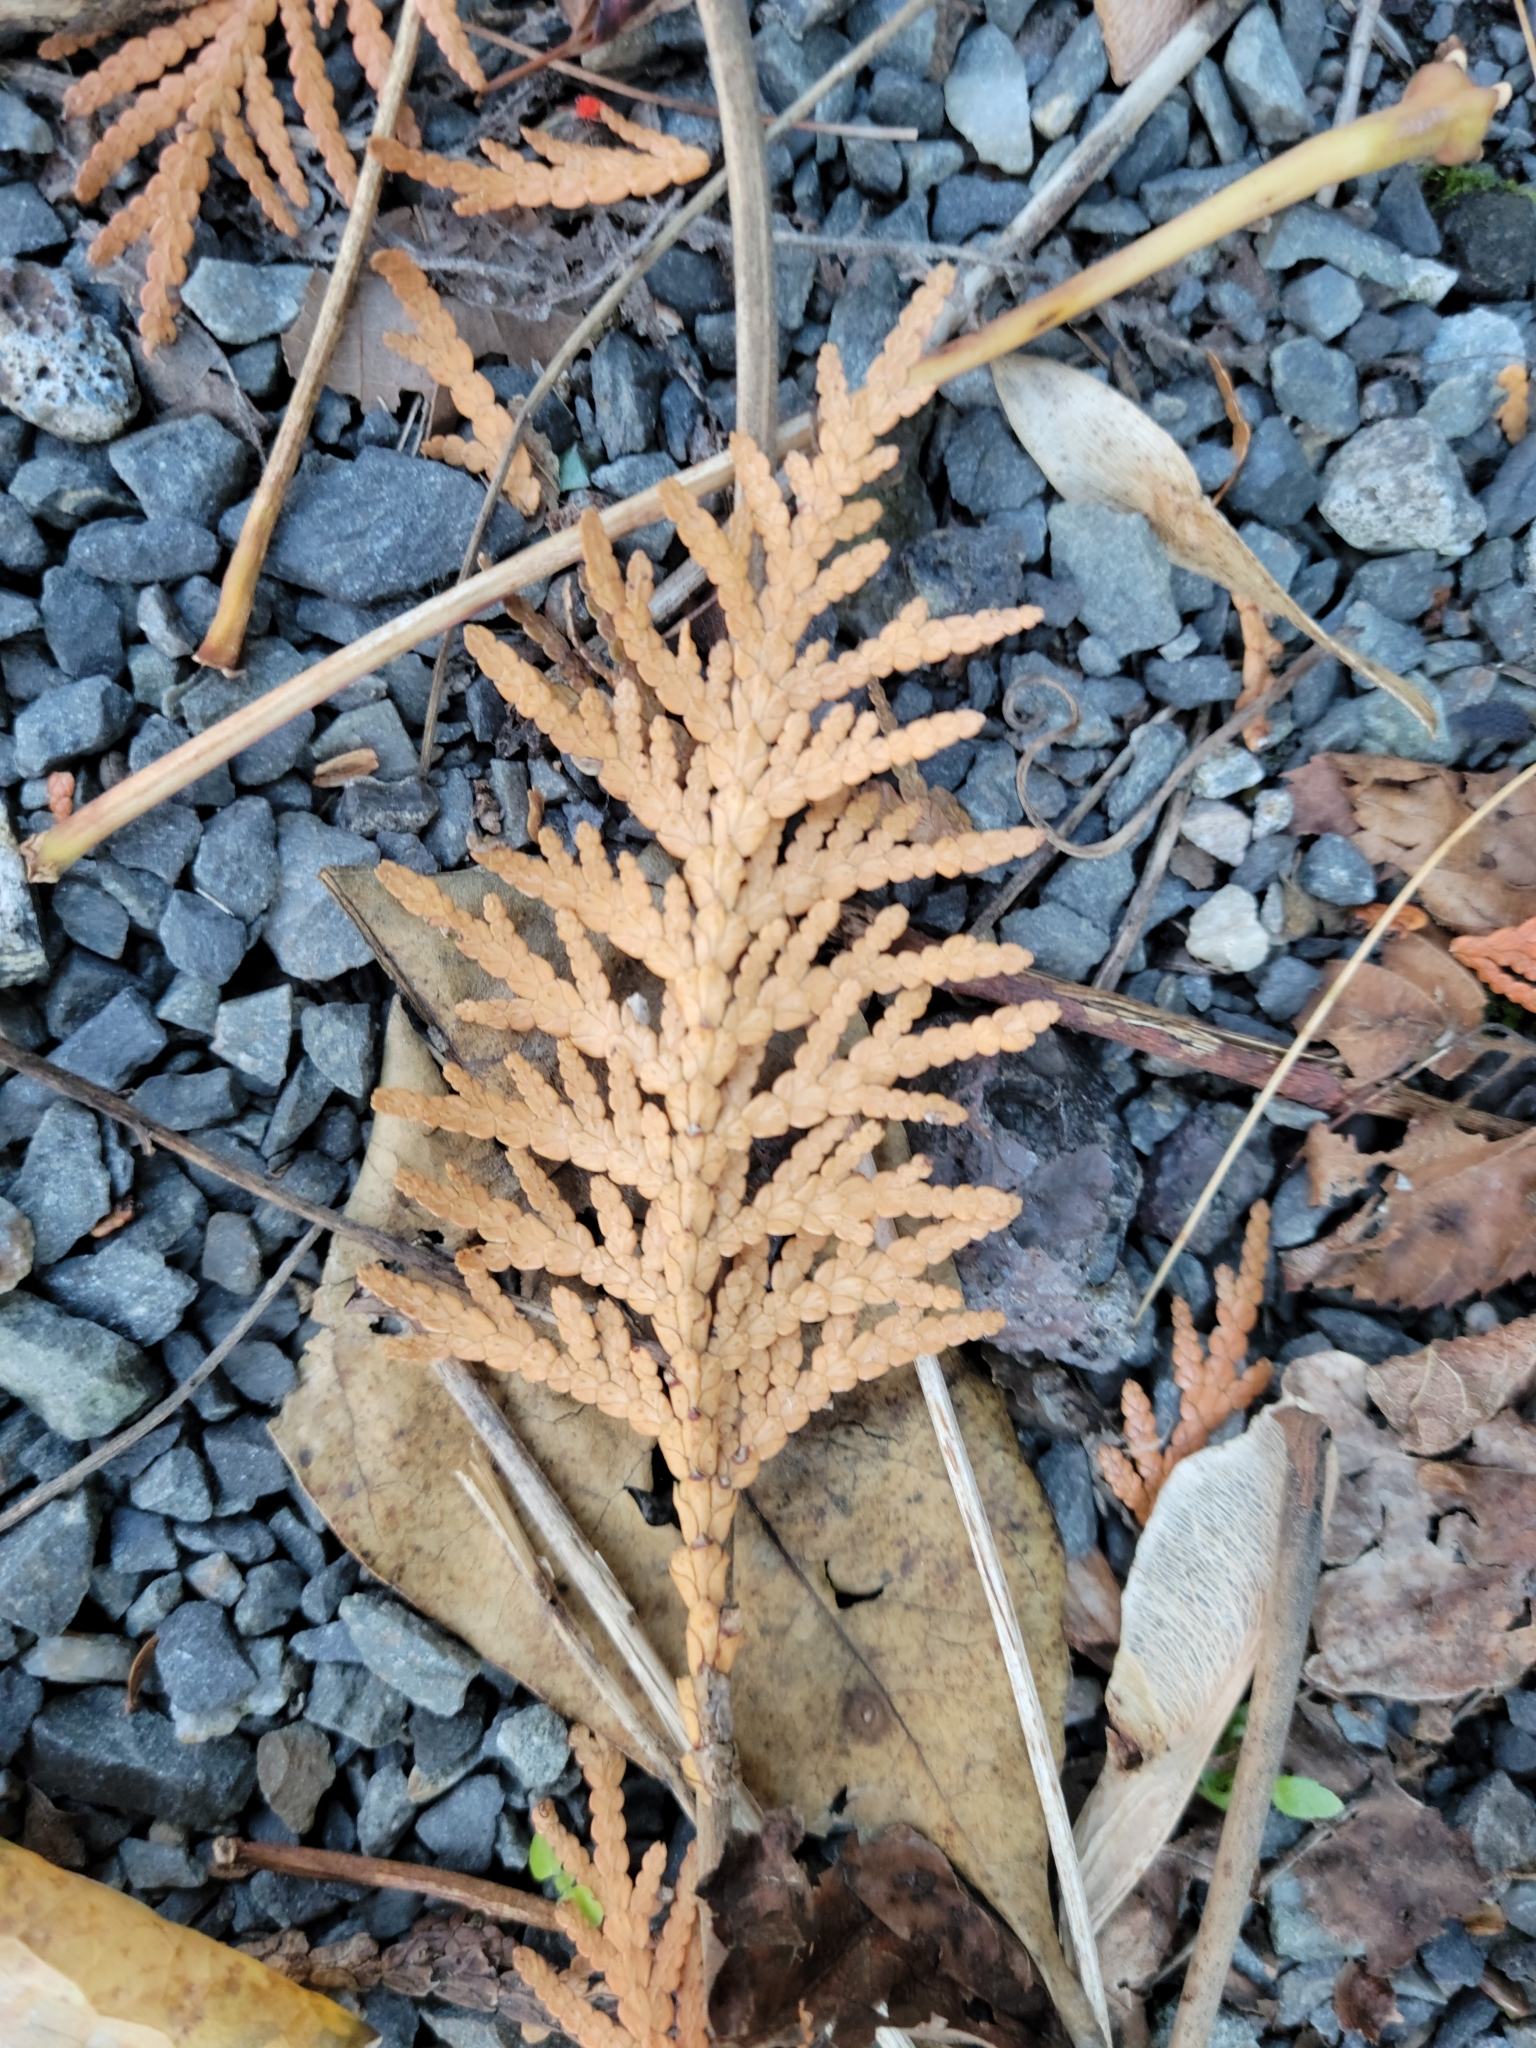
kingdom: Plantae
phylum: Tracheophyta
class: Pinopsida
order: Pinales
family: Cupressaceae
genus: Thuja
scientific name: Thuja occidentalis
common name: Northern white-cedar
